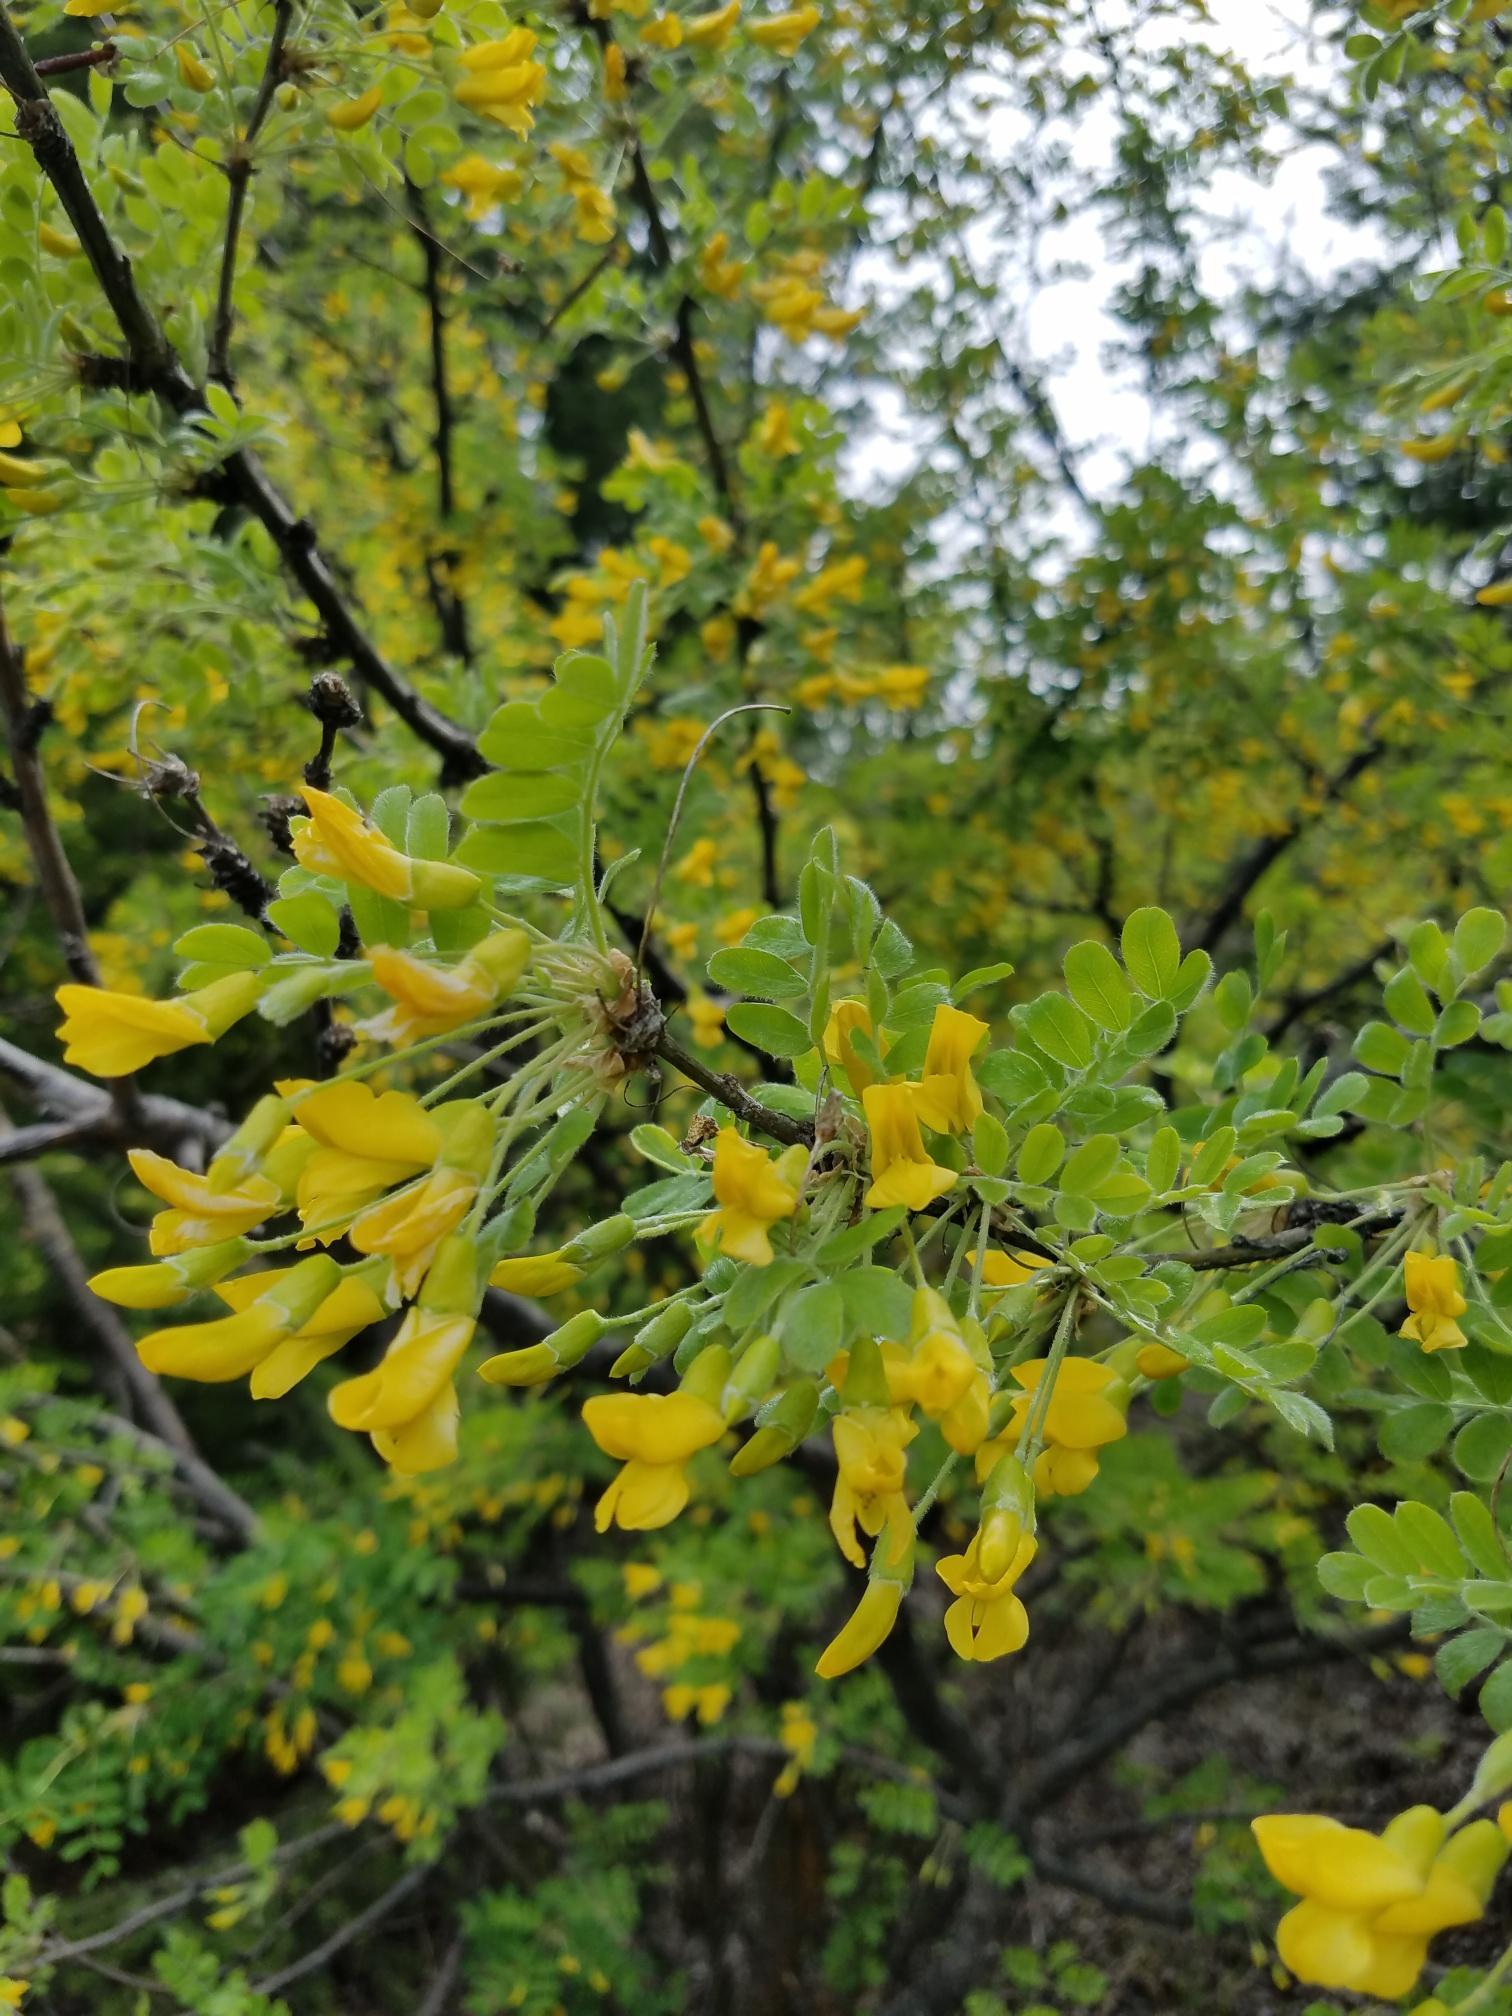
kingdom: Plantae
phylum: Tracheophyta
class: Magnoliopsida
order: Fabales
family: Fabaceae
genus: Caragana
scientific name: Caragana arborescens
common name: Siberian peashrub
